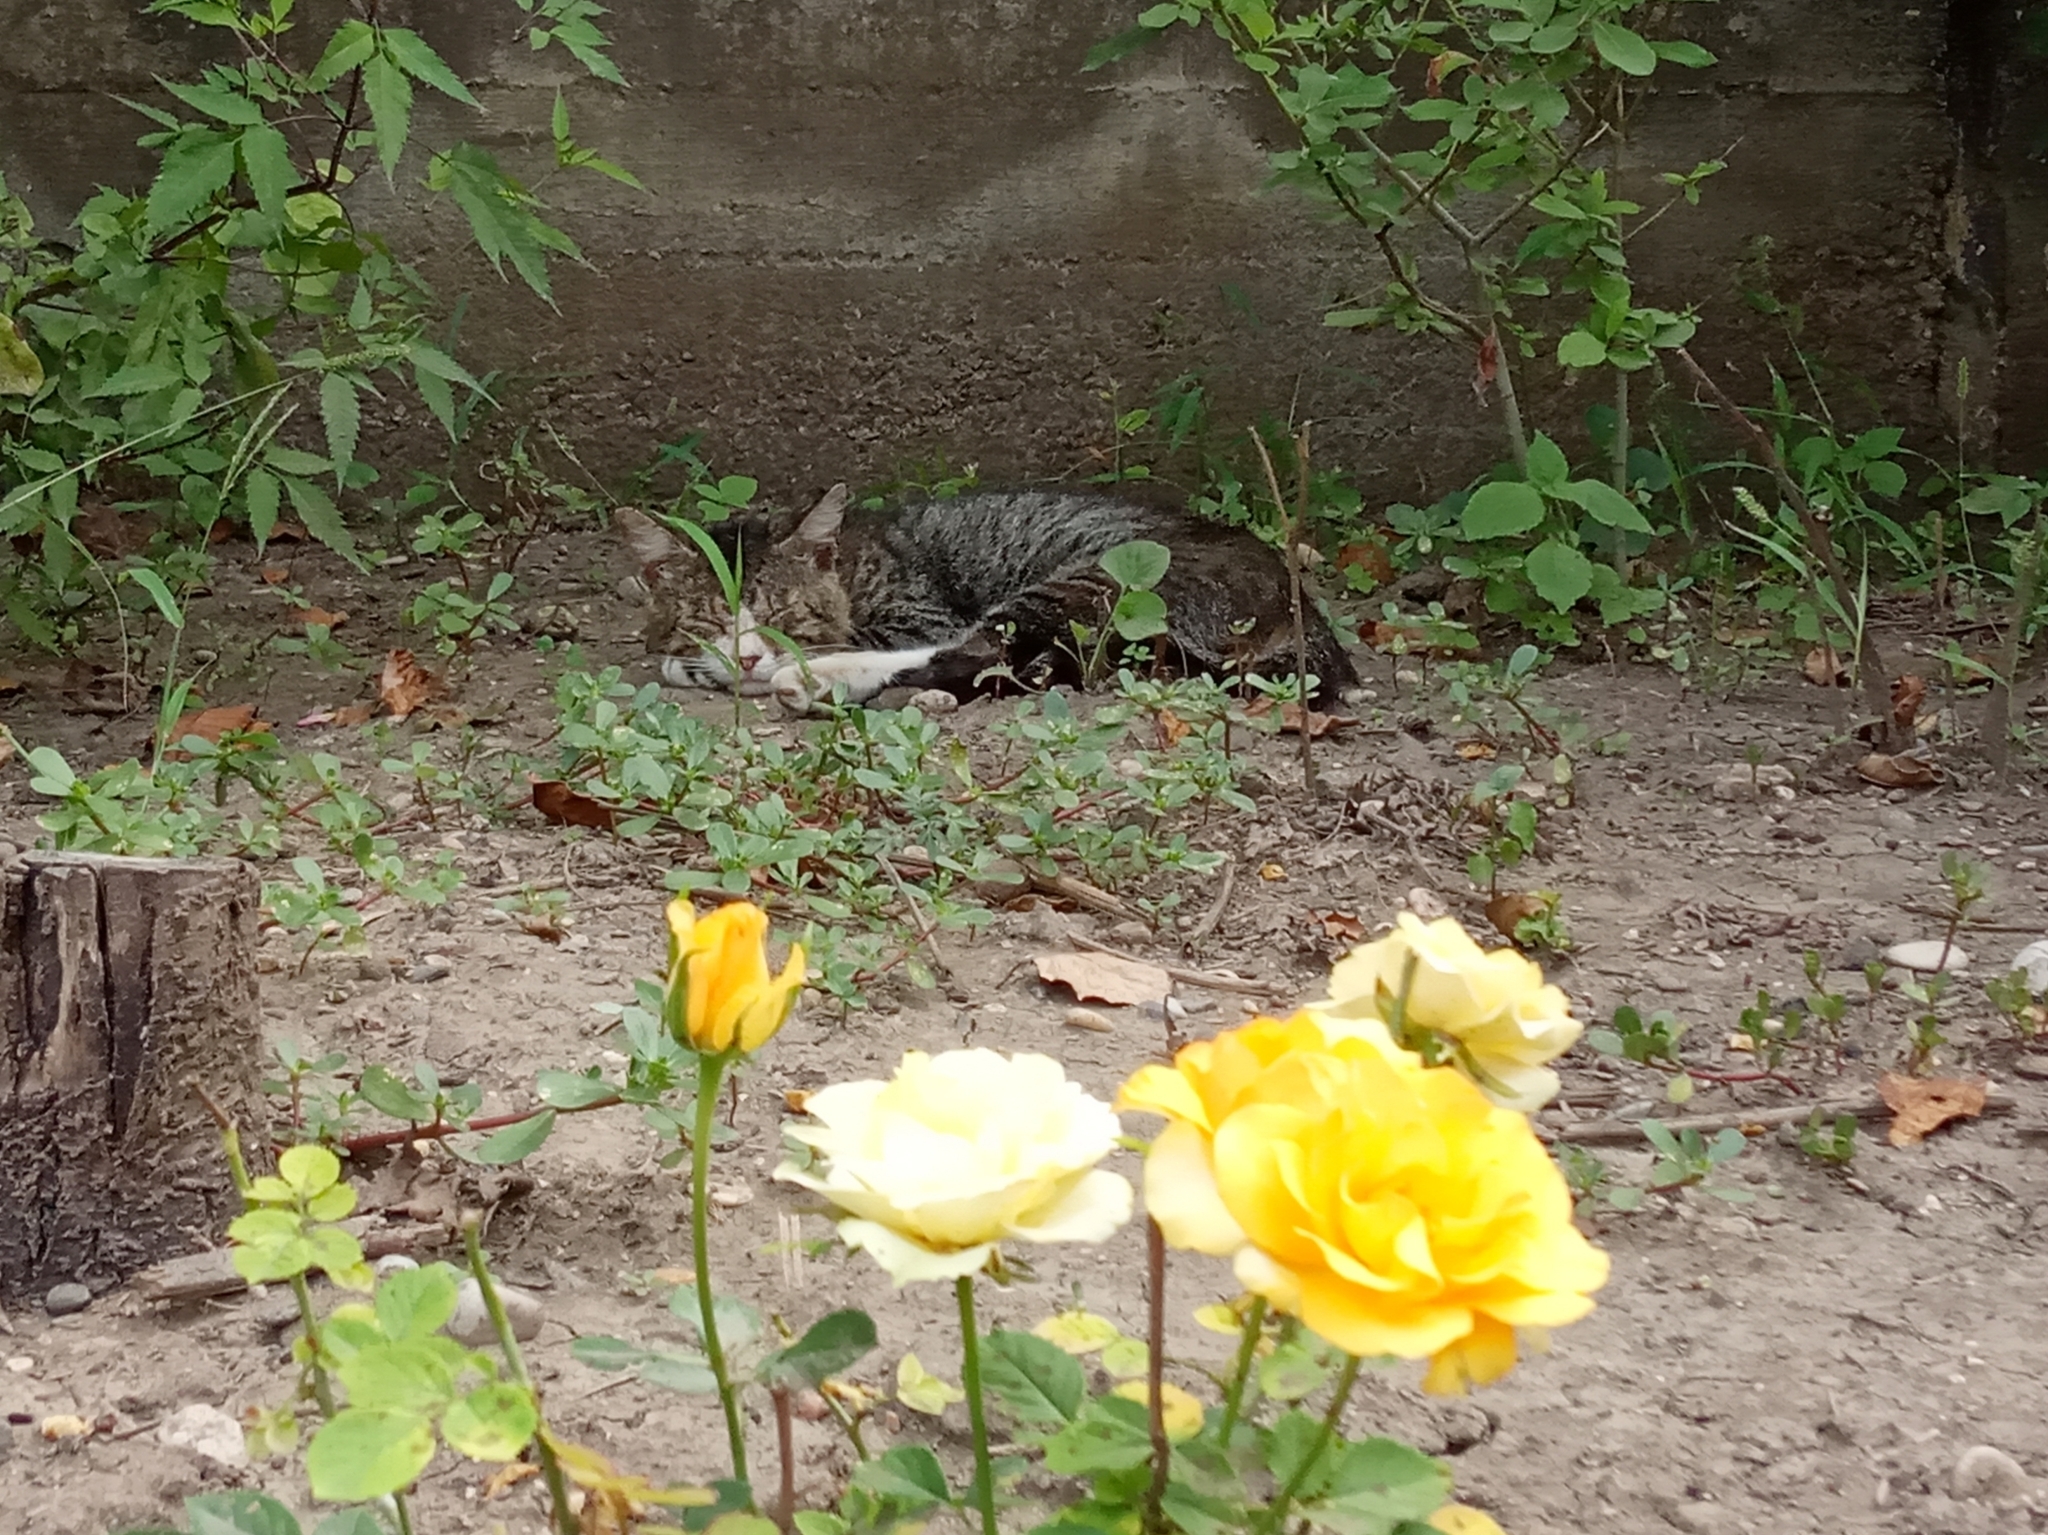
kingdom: Animalia
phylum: Chordata
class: Mammalia
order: Carnivora
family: Felidae
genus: Felis
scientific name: Felis catus
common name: Domestic cat
